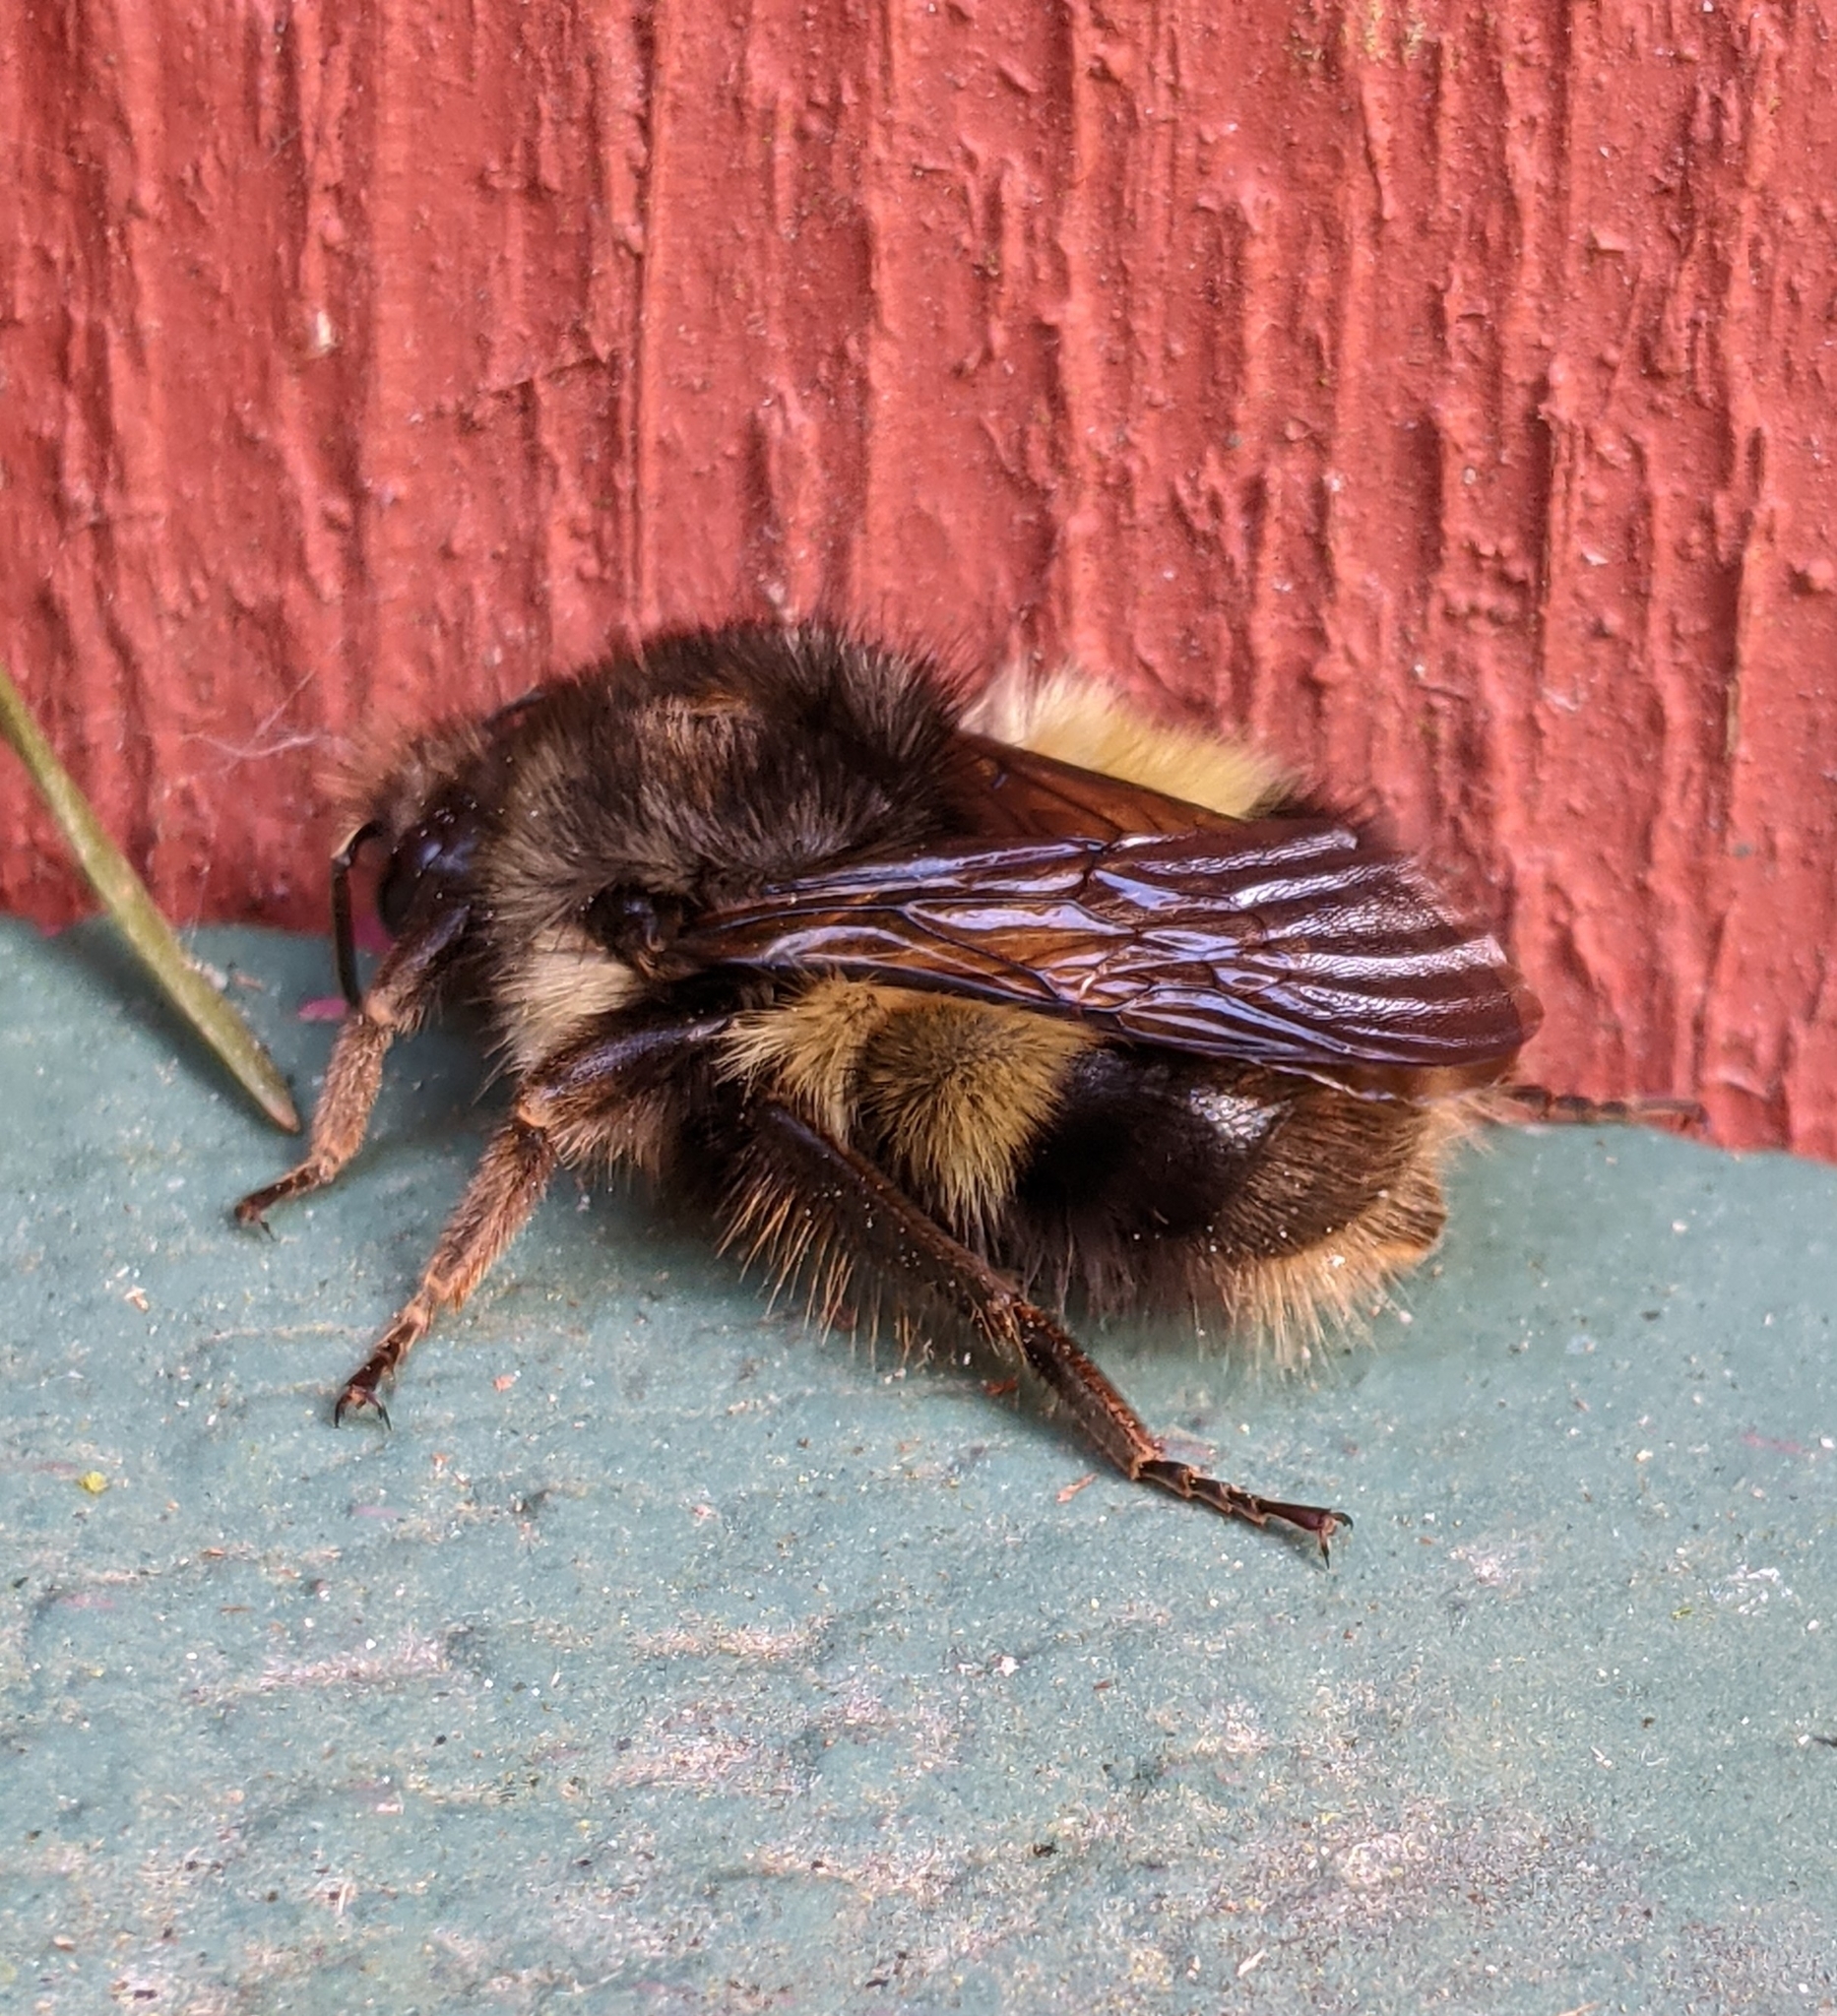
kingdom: Animalia
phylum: Arthropoda
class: Insecta
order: Hymenoptera
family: Apidae
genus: Bombus
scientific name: Bombus sitkensis
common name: Sitka bumble bee
